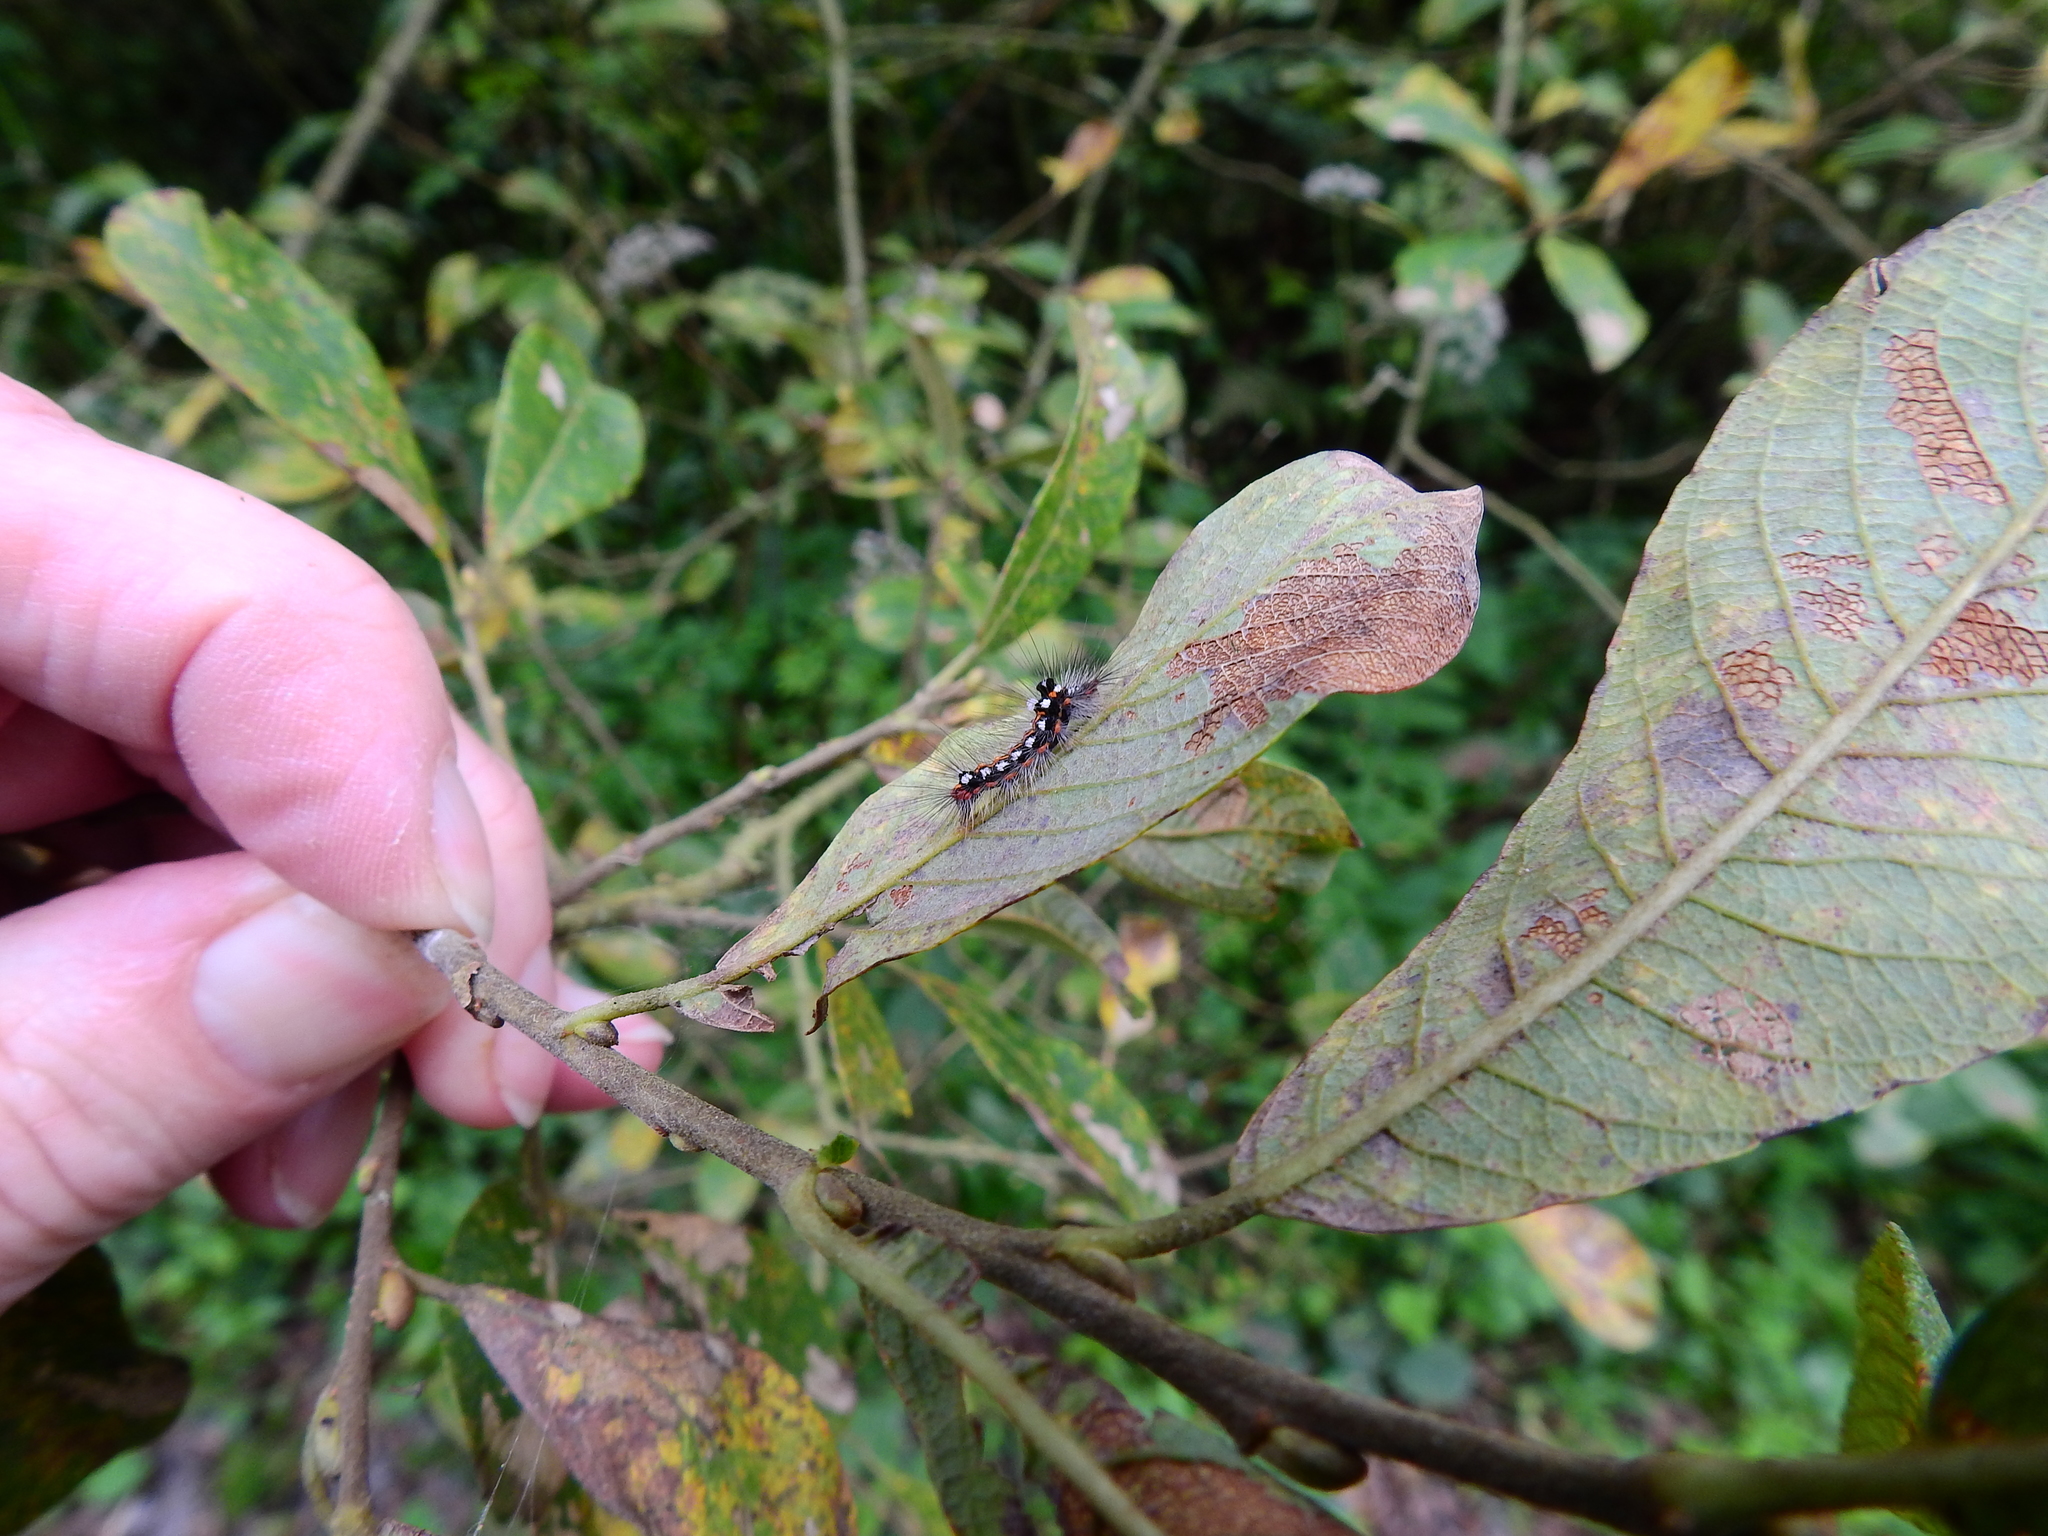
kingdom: Animalia
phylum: Arthropoda
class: Insecta
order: Lepidoptera
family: Erebidae
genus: Sphrageidus
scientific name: Sphrageidus similis
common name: Yellow-tail
